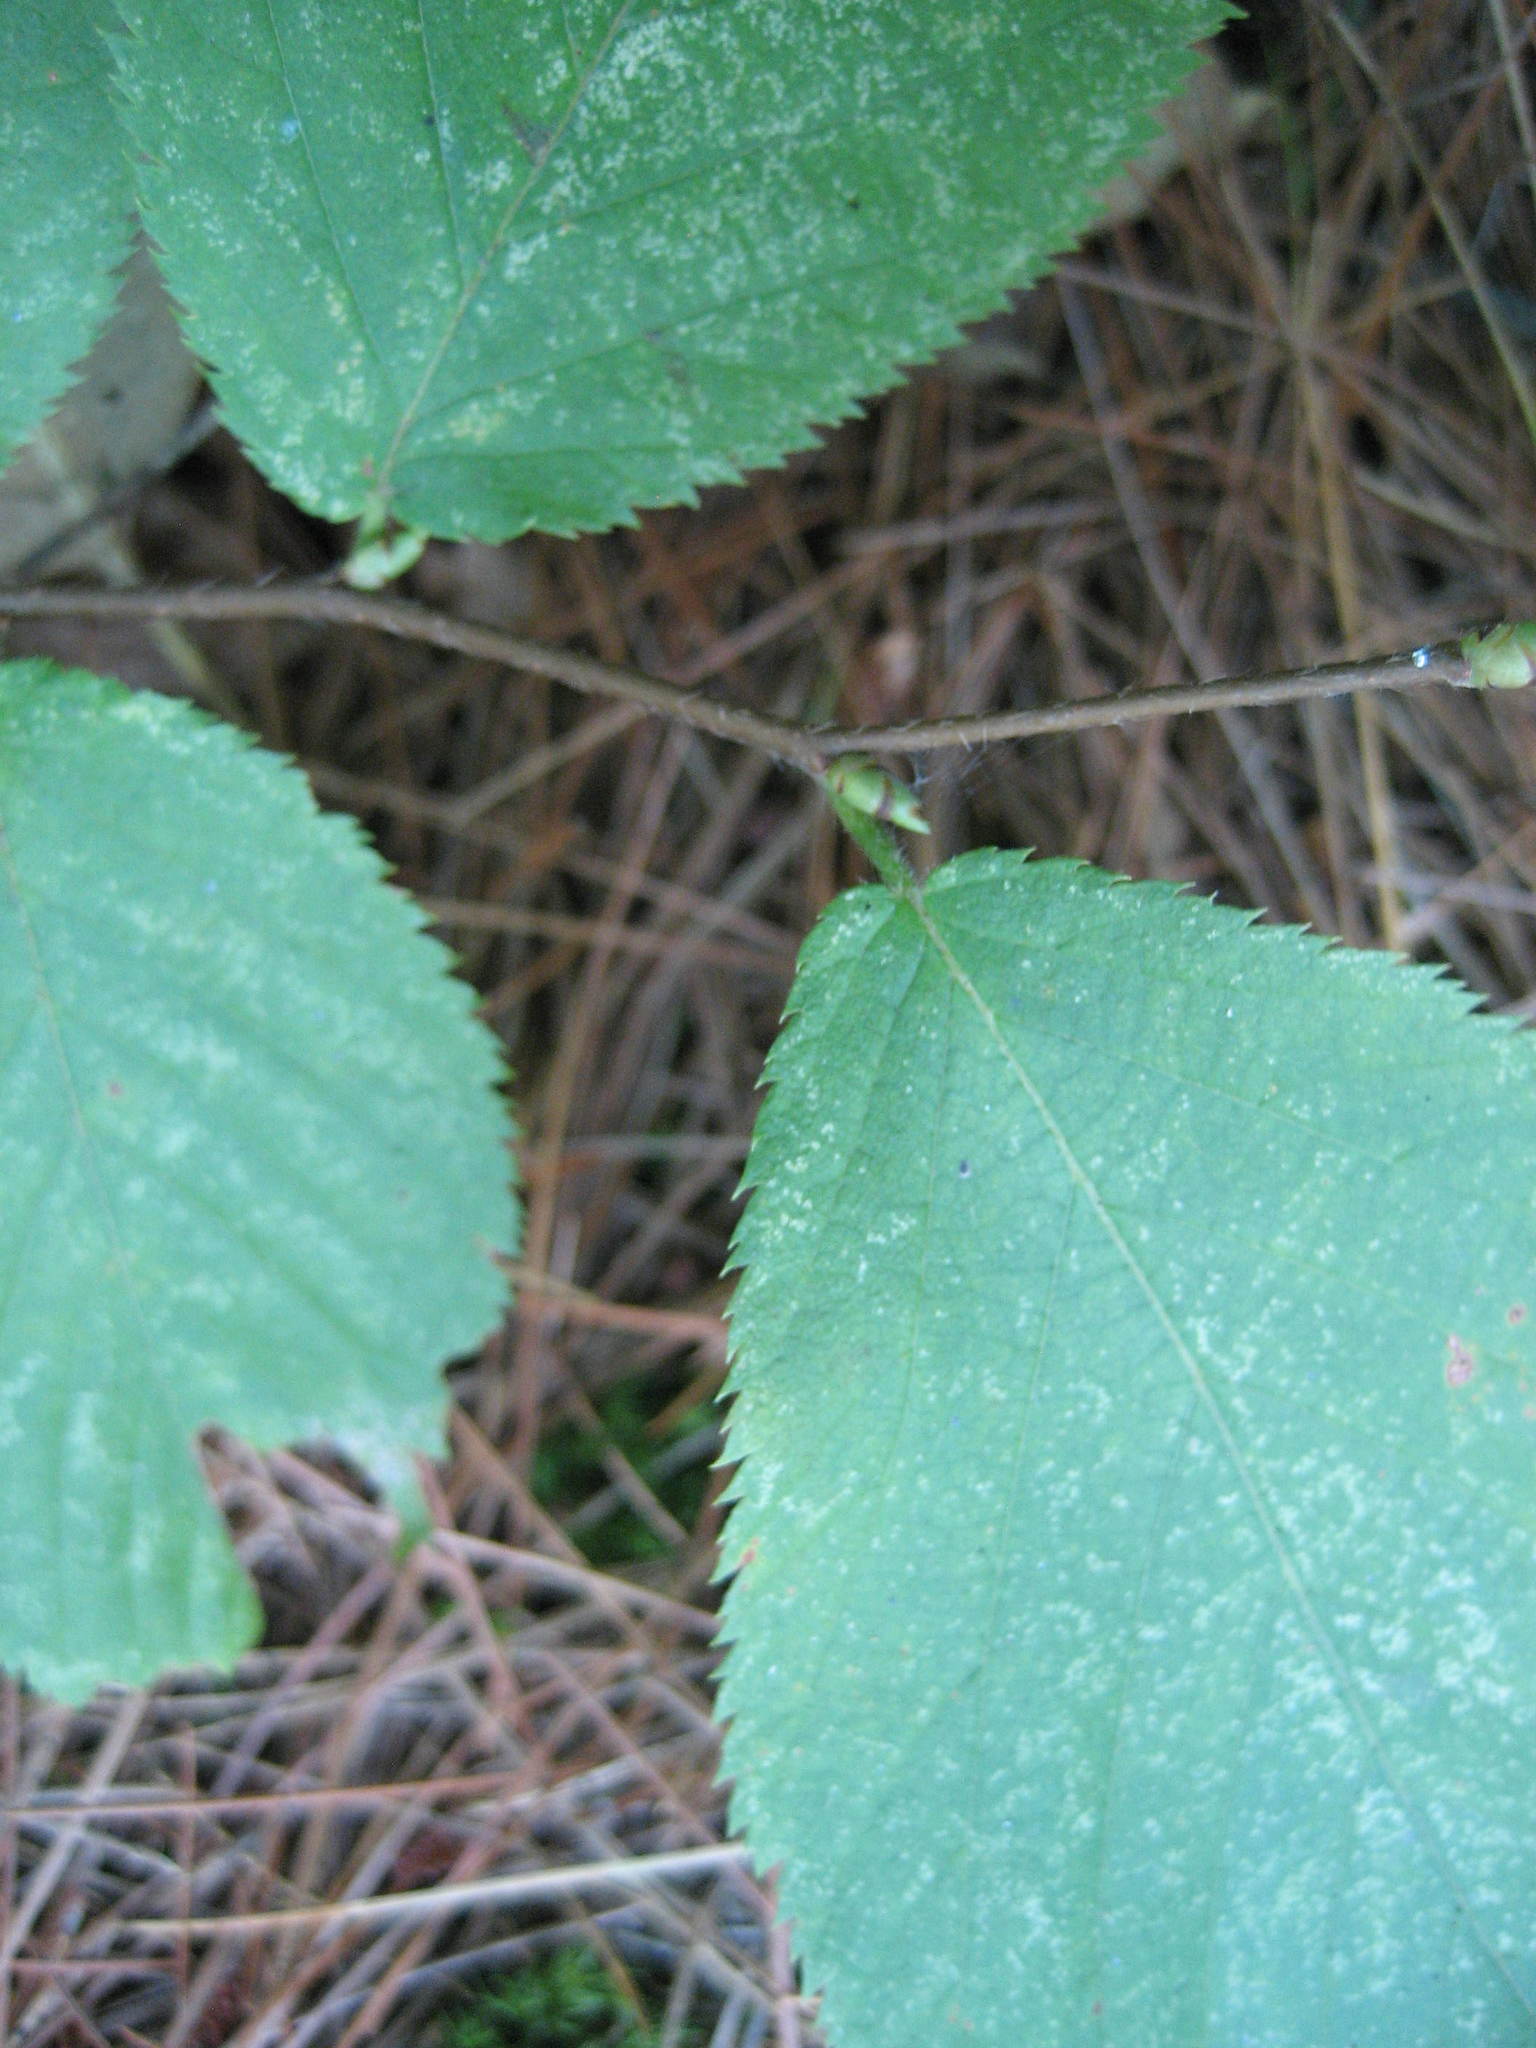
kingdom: Plantae
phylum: Tracheophyta
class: Magnoliopsida
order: Fagales
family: Betulaceae
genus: Ostrya
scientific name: Ostrya virginiana
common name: Ironwood
